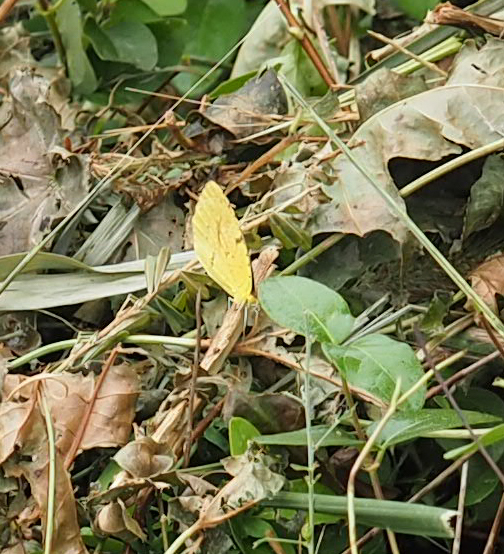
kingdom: Animalia
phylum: Arthropoda
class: Insecta
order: Lepidoptera
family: Pieridae
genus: Abaeis
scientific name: Abaeis nicippe
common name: Sleepy orange
